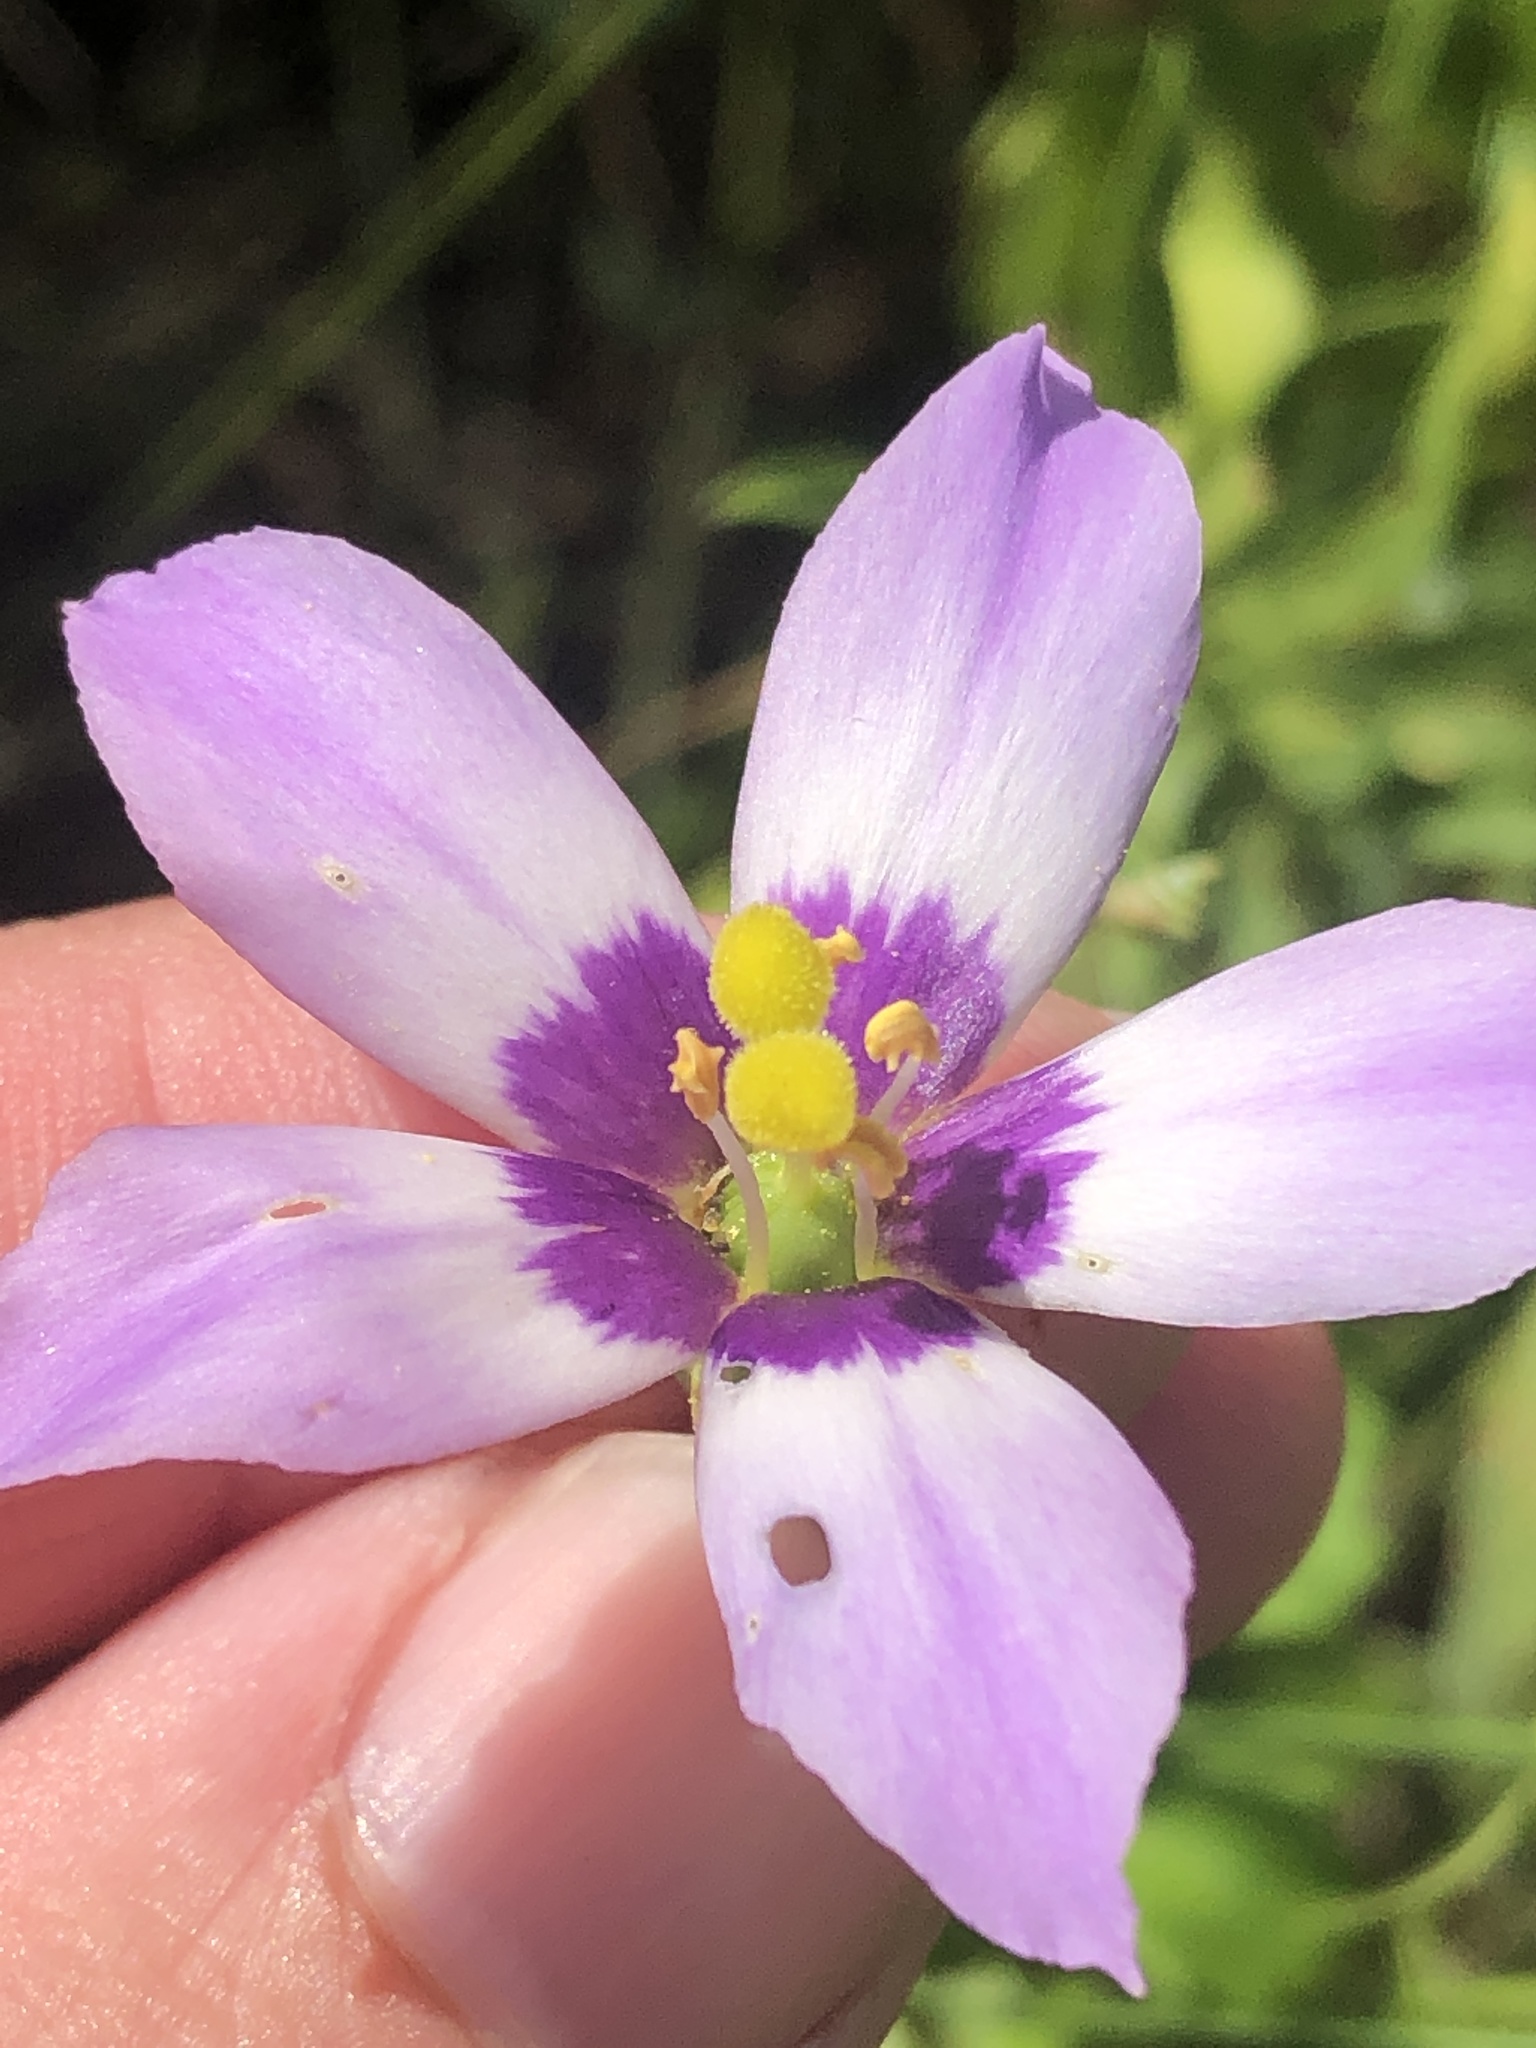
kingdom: Plantae
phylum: Tracheophyta
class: Magnoliopsida
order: Gentianales
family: Gentianaceae
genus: Eustoma
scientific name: Eustoma exaltatum
